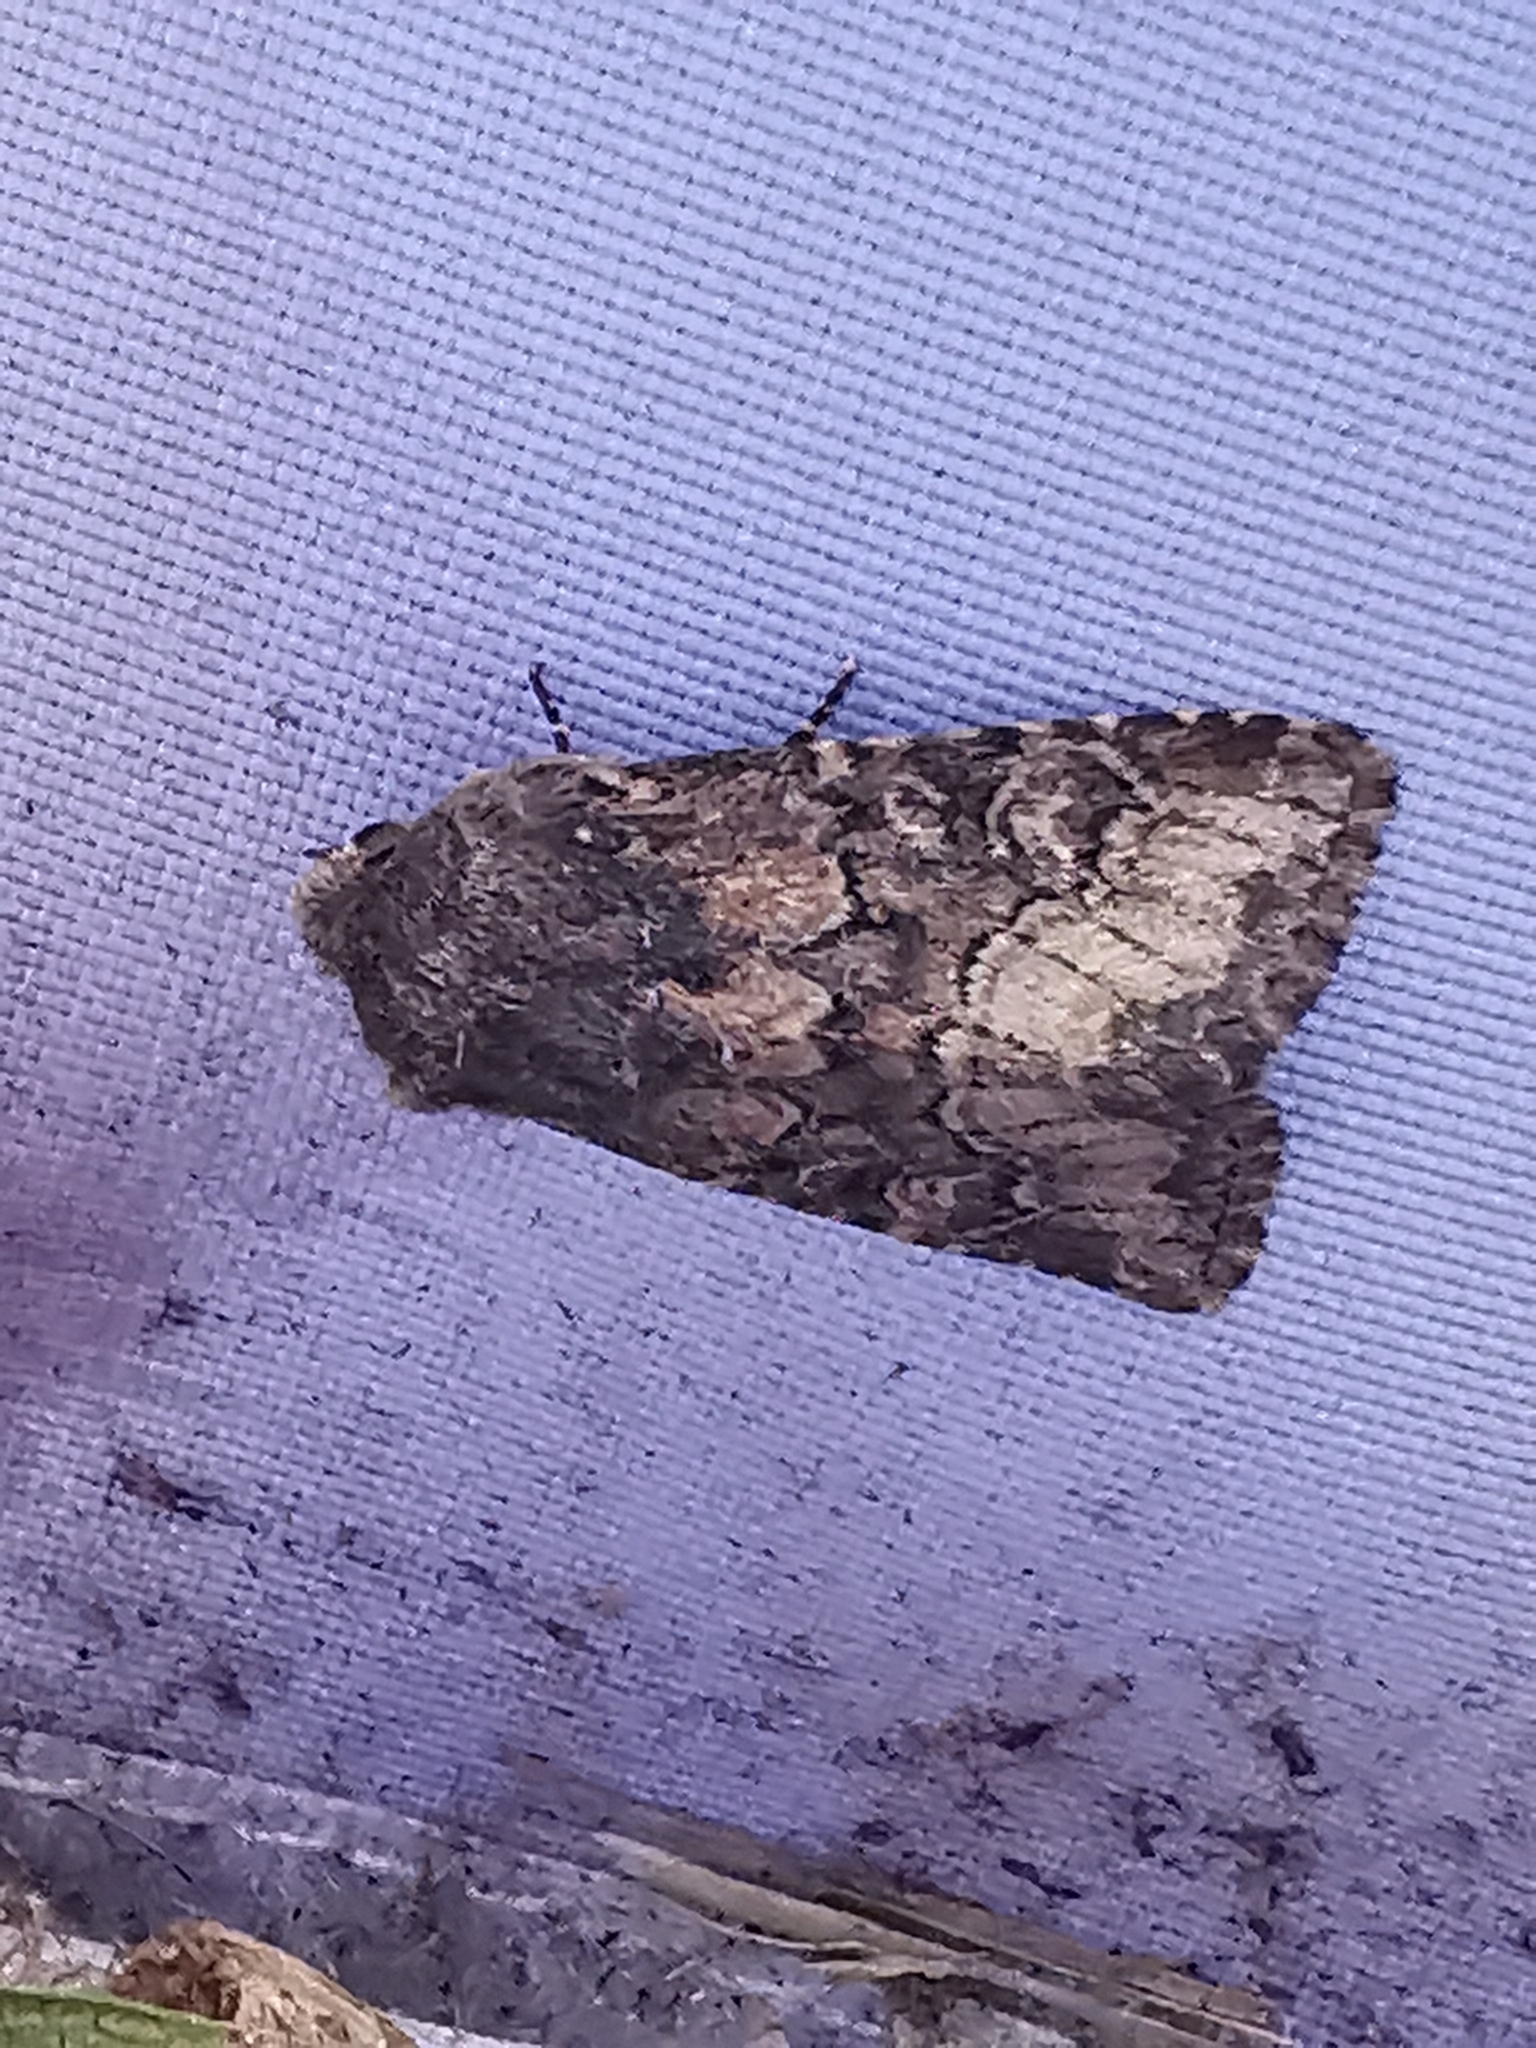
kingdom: Animalia
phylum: Arthropoda
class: Insecta
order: Lepidoptera
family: Noctuidae
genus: Luperina
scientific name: Luperina testacea
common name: Flounced rustic
